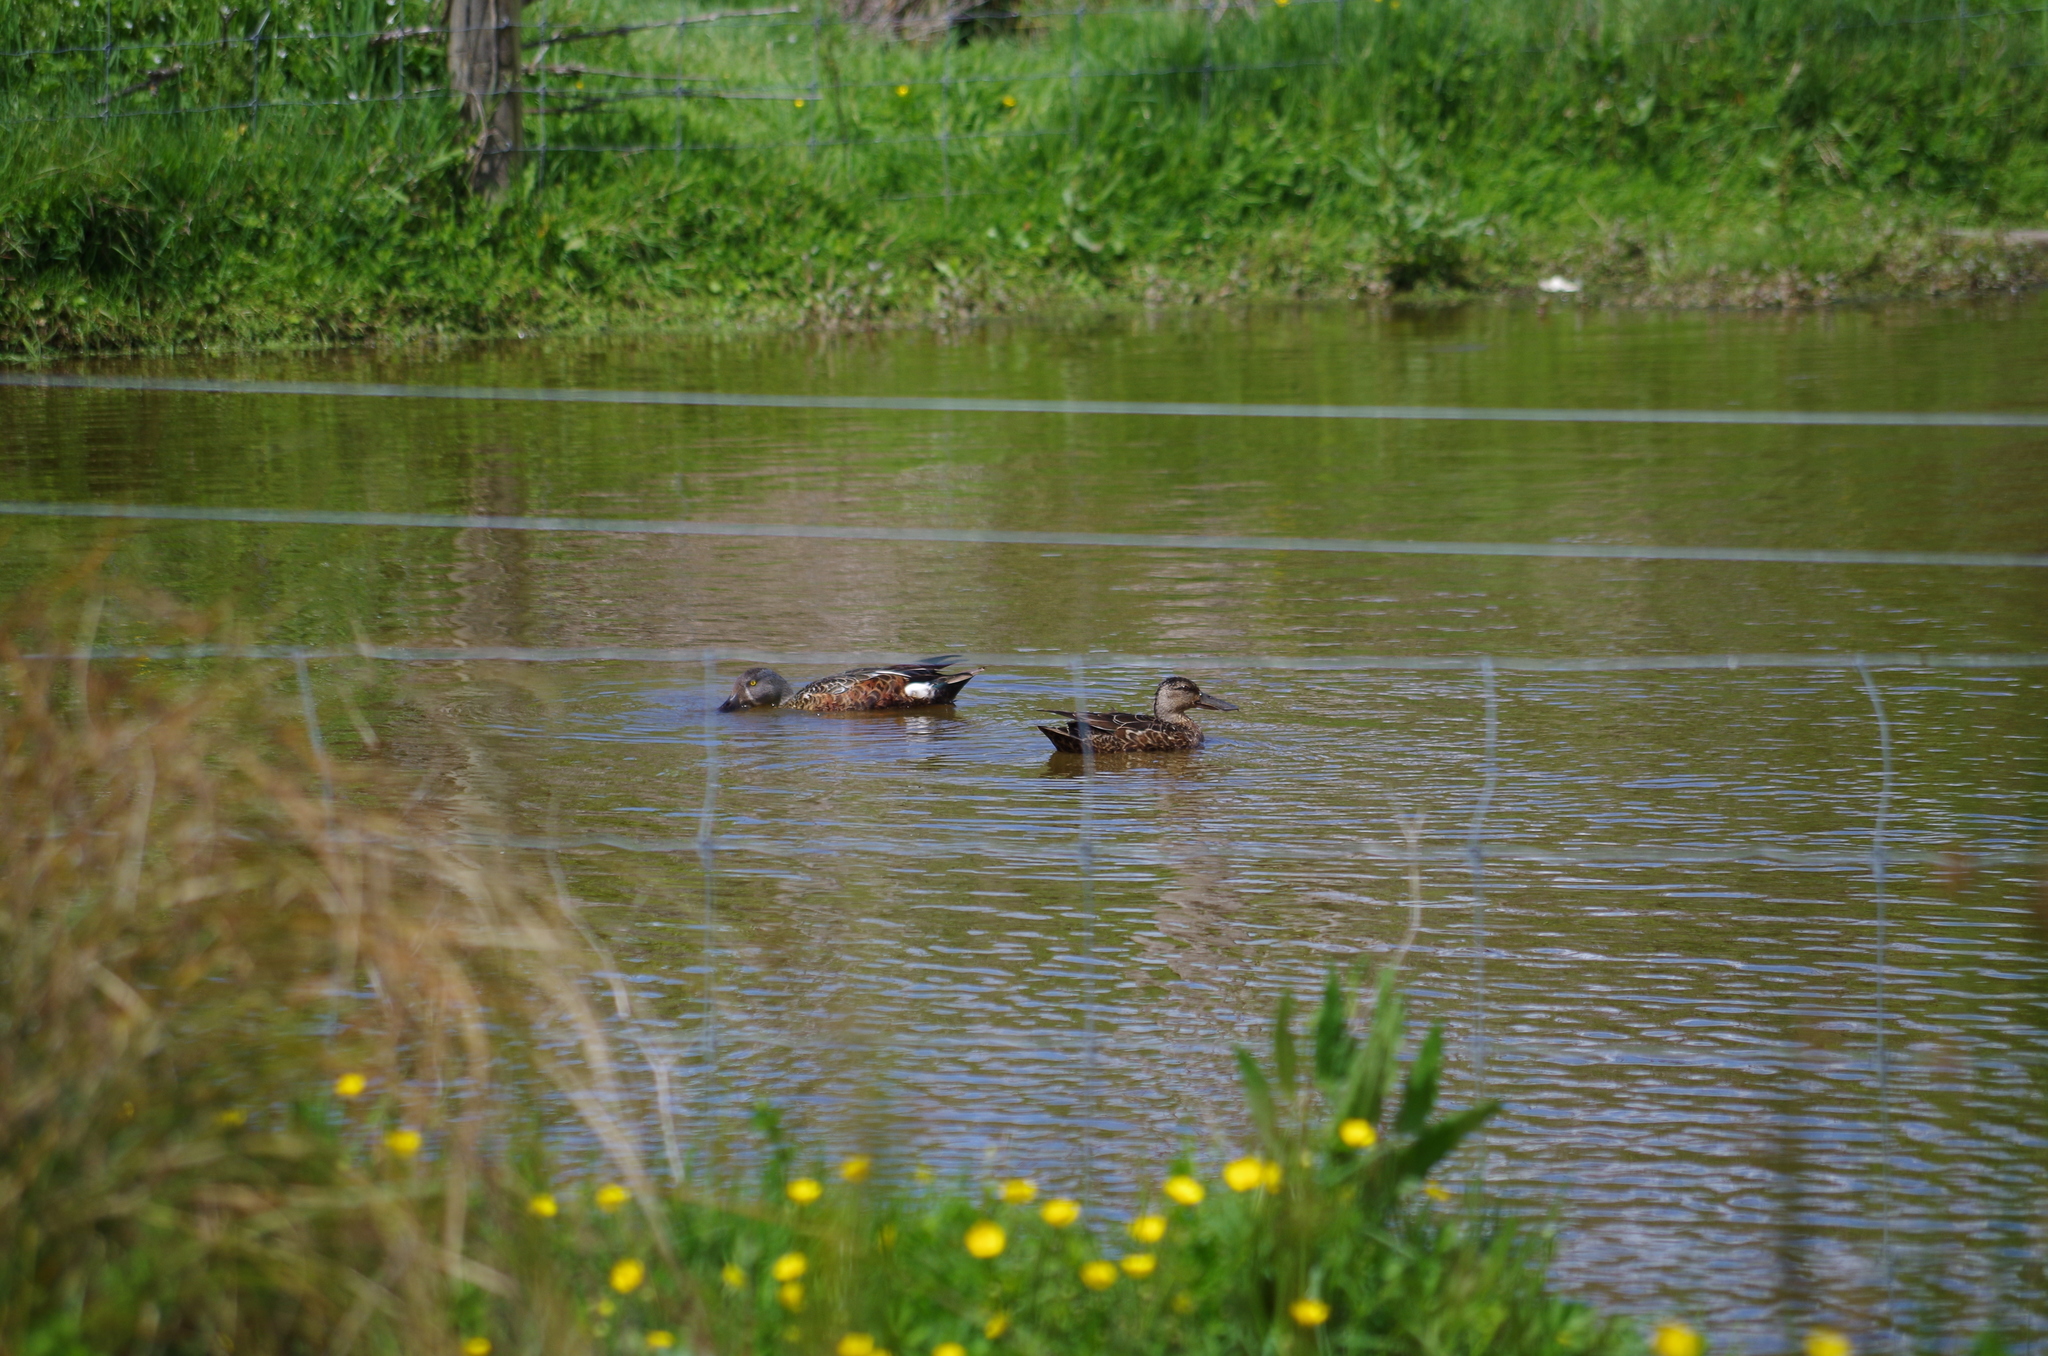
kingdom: Animalia
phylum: Chordata
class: Aves
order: Anseriformes
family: Anatidae
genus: Spatula
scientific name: Spatula rhynchotis
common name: Australian shoveler
